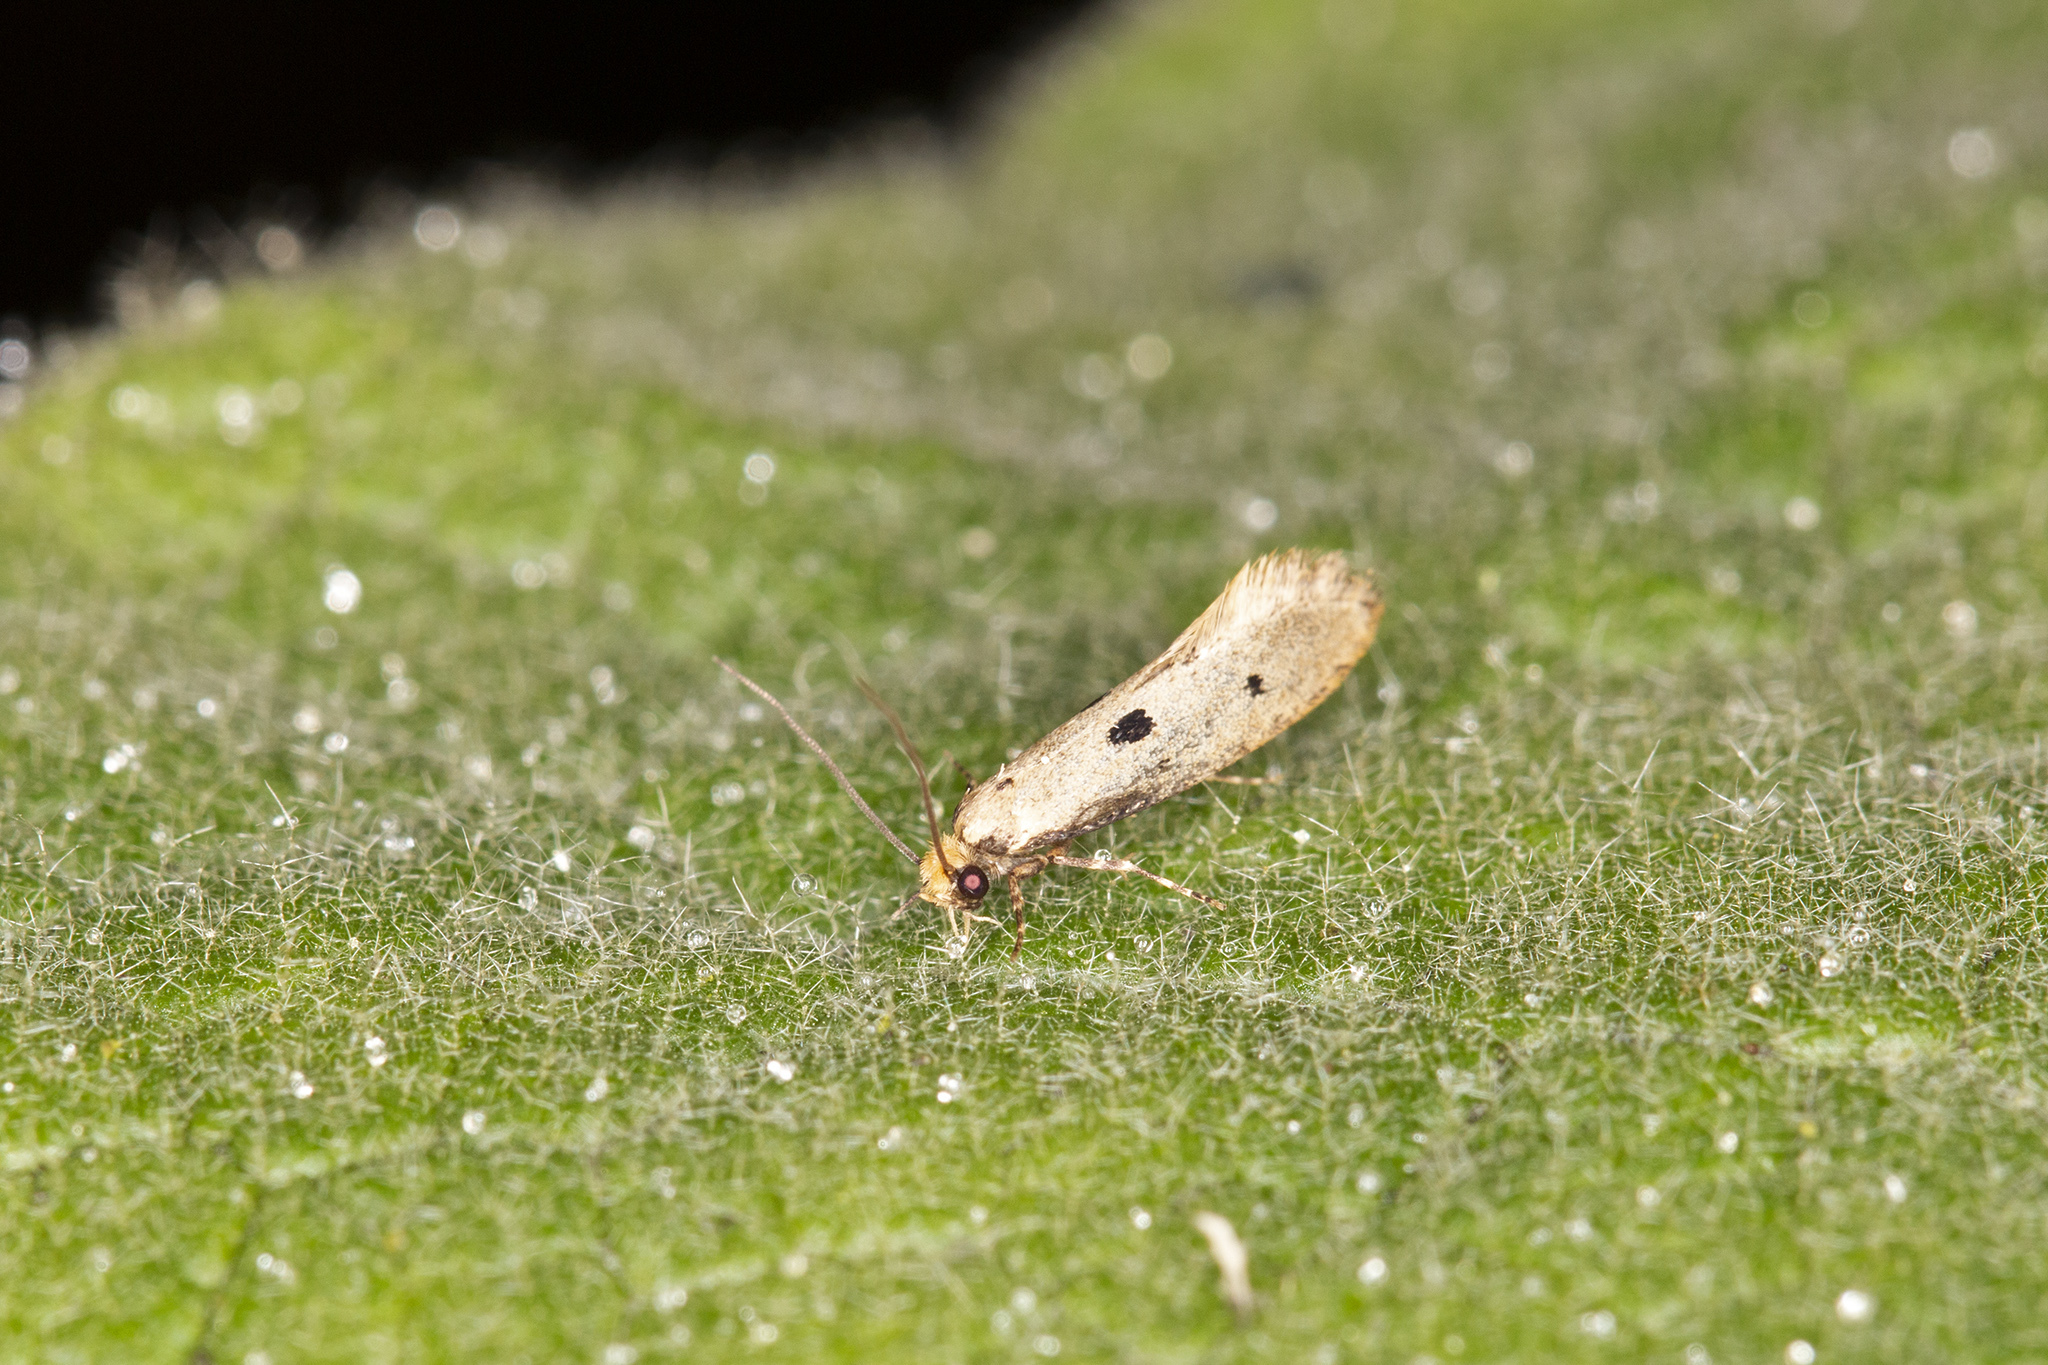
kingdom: Animalia
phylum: Arthropoda
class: Insecta
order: Lepidoptera
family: Tineidae
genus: Tinea
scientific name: Tinea trinotella
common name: Bird's-nest moth
